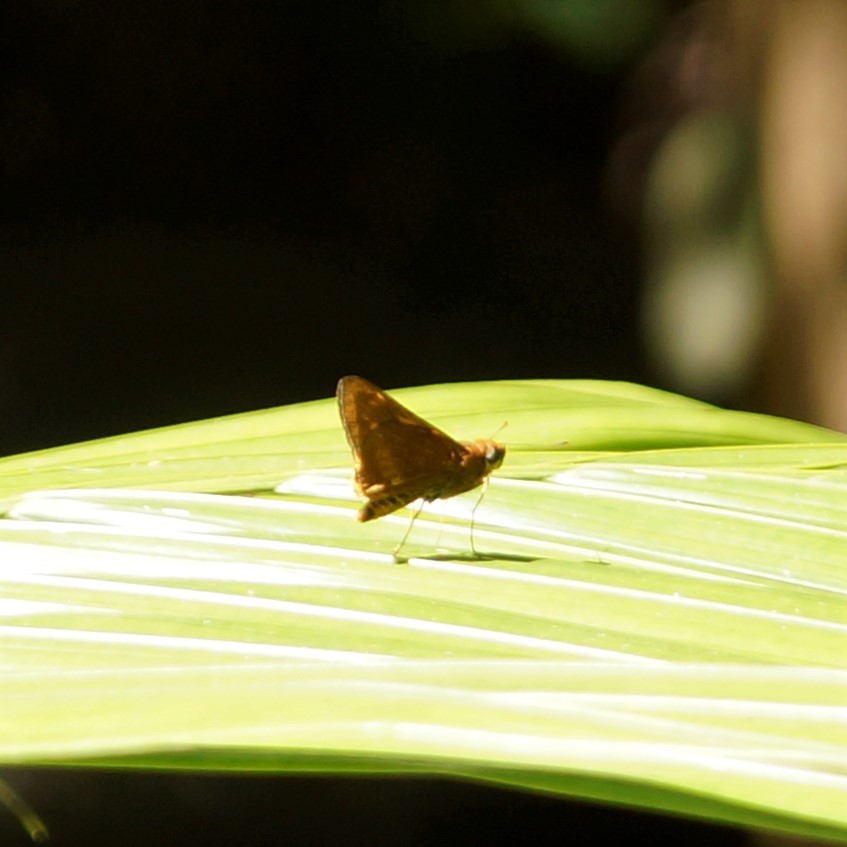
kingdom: Animalia
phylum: Arthropoda
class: Insecta
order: Lepidoptera
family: Hesperiidae
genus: Cephrenes
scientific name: Cephrenes augiades
